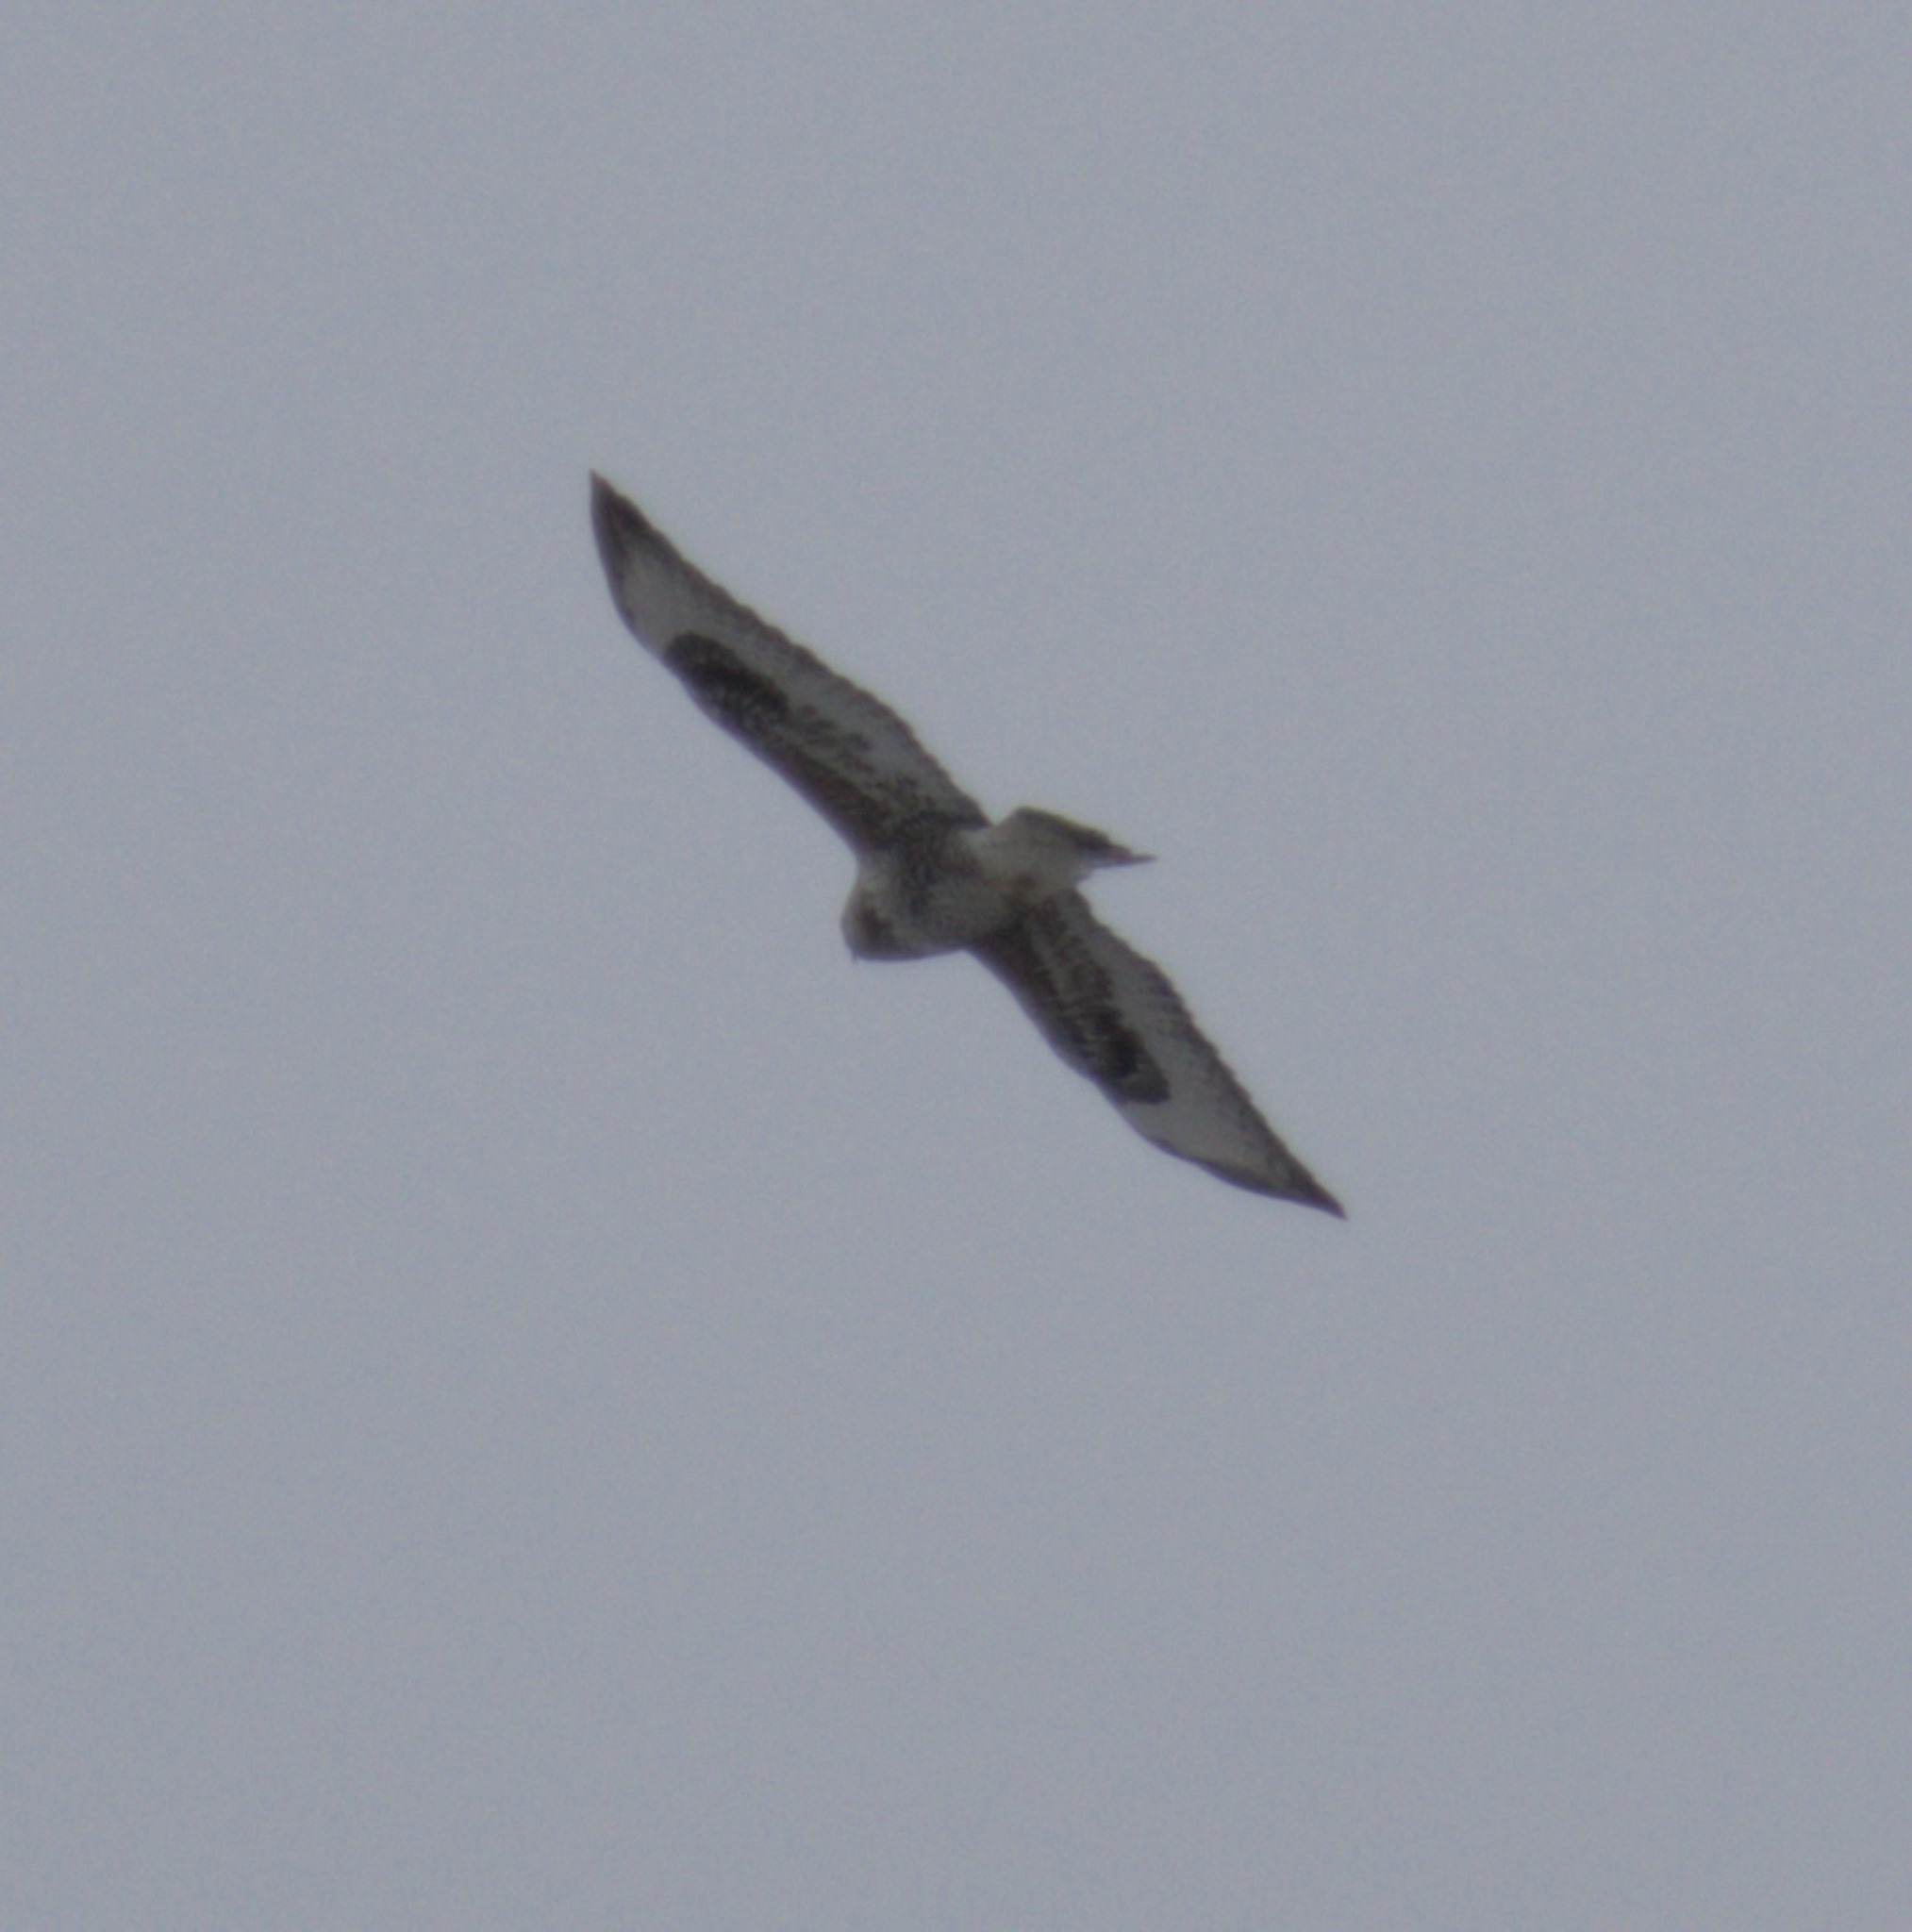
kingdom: Animalia
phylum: Chordata
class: Aves
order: Accipitriformes
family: Accipitridae
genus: Buteo
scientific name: Buteo lagopus
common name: Rough-legged buzzard
